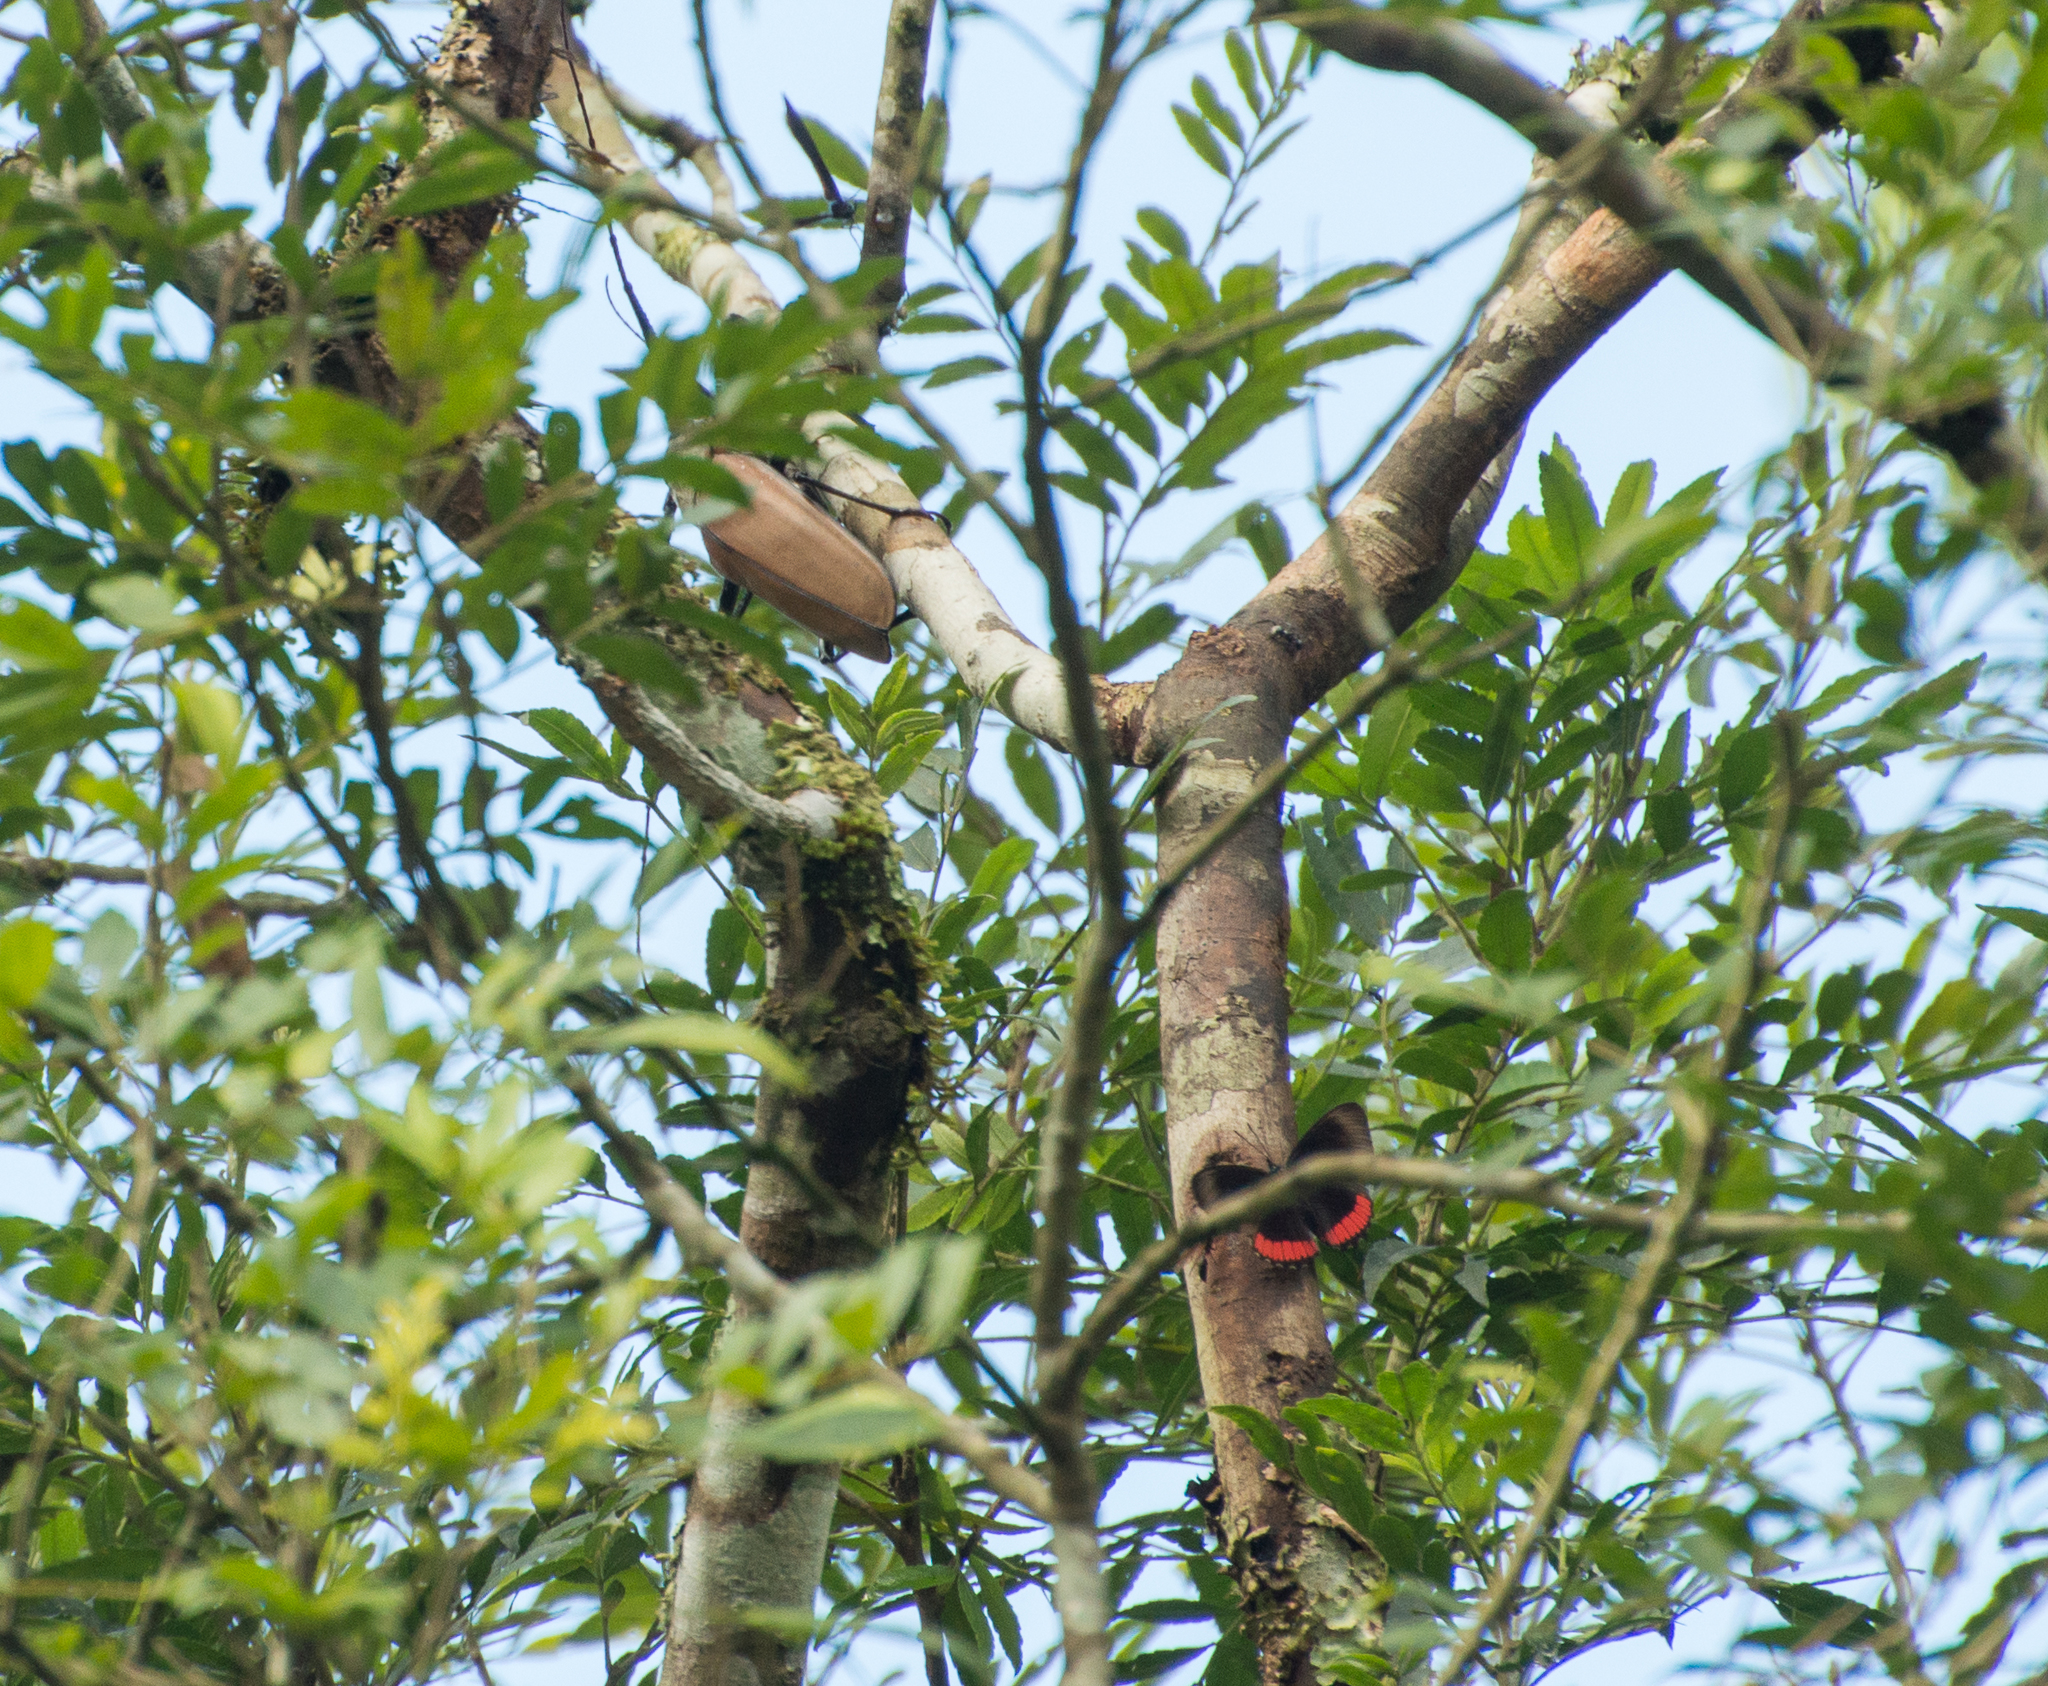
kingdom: Animalia
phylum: Arthropoda
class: Insecta
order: Coleoptera
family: Cerambycidae
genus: Enoplocerus
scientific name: Enoplocerus armillatus
